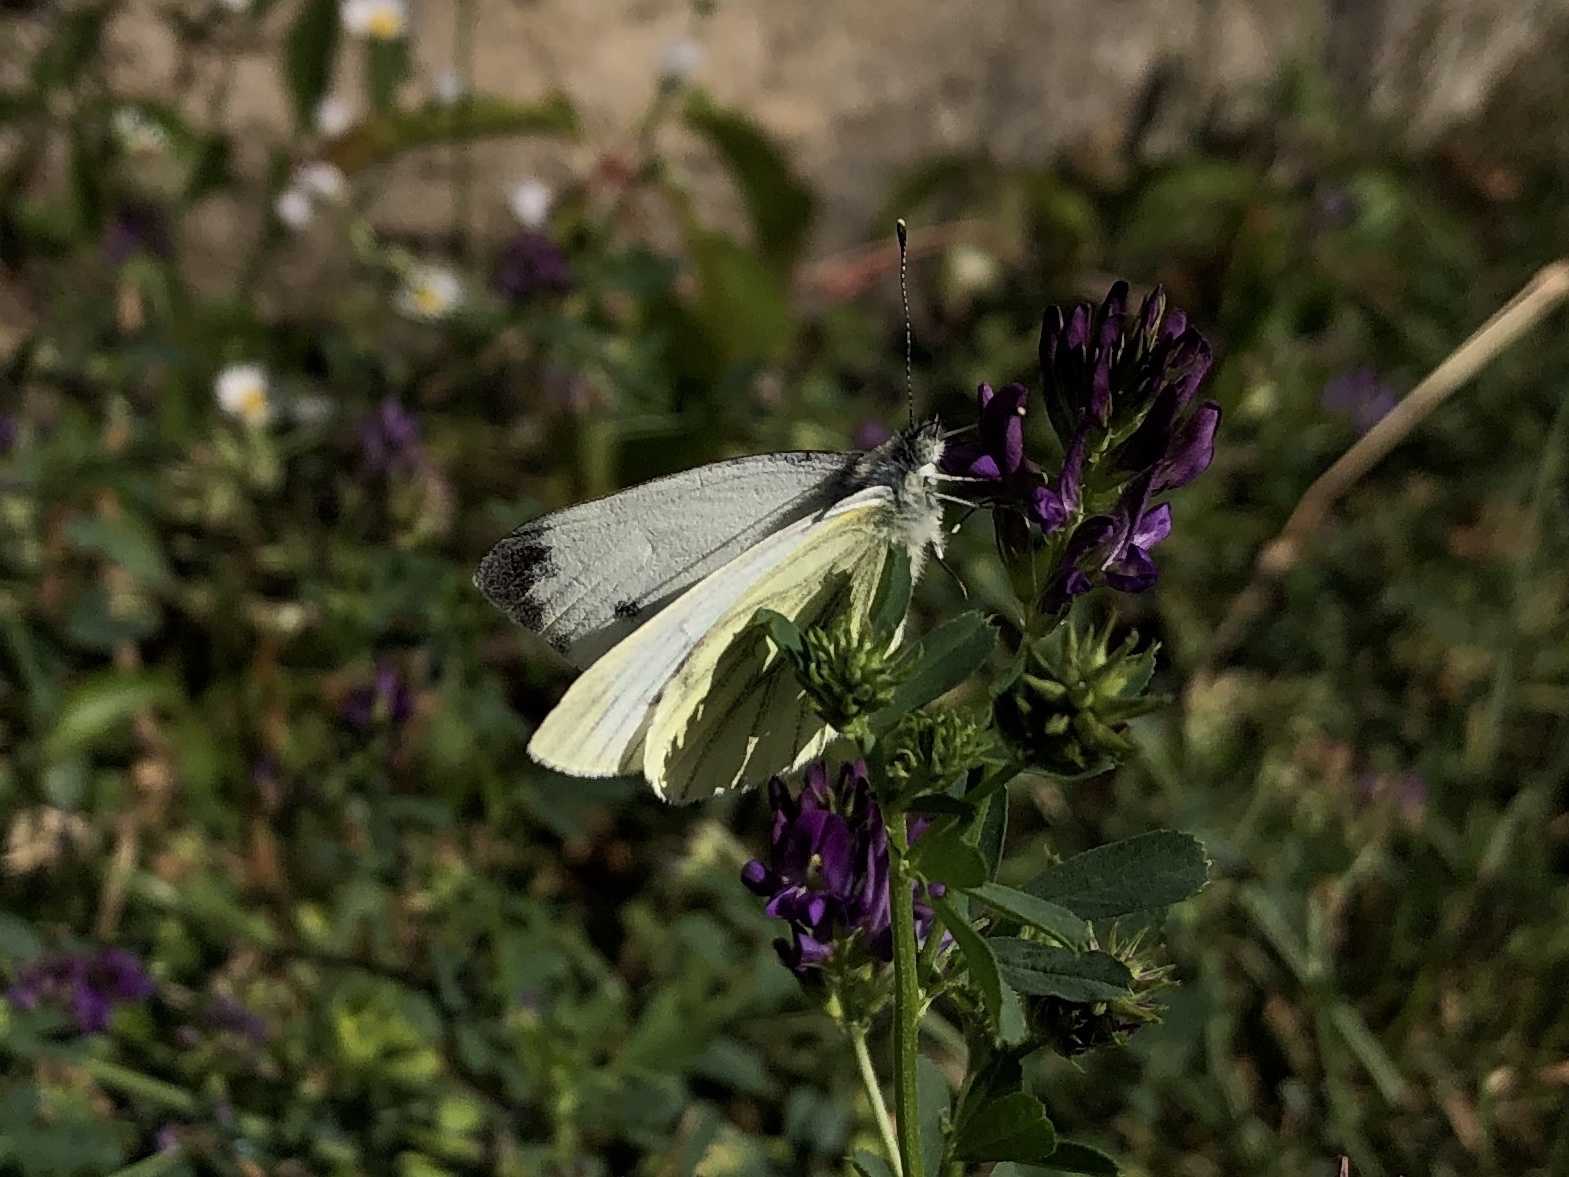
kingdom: Animalia
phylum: Arthropoda
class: Insecta
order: Lepidoptera
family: Pieridae
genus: Pieris
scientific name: Pieris napi
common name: Green-veined white
